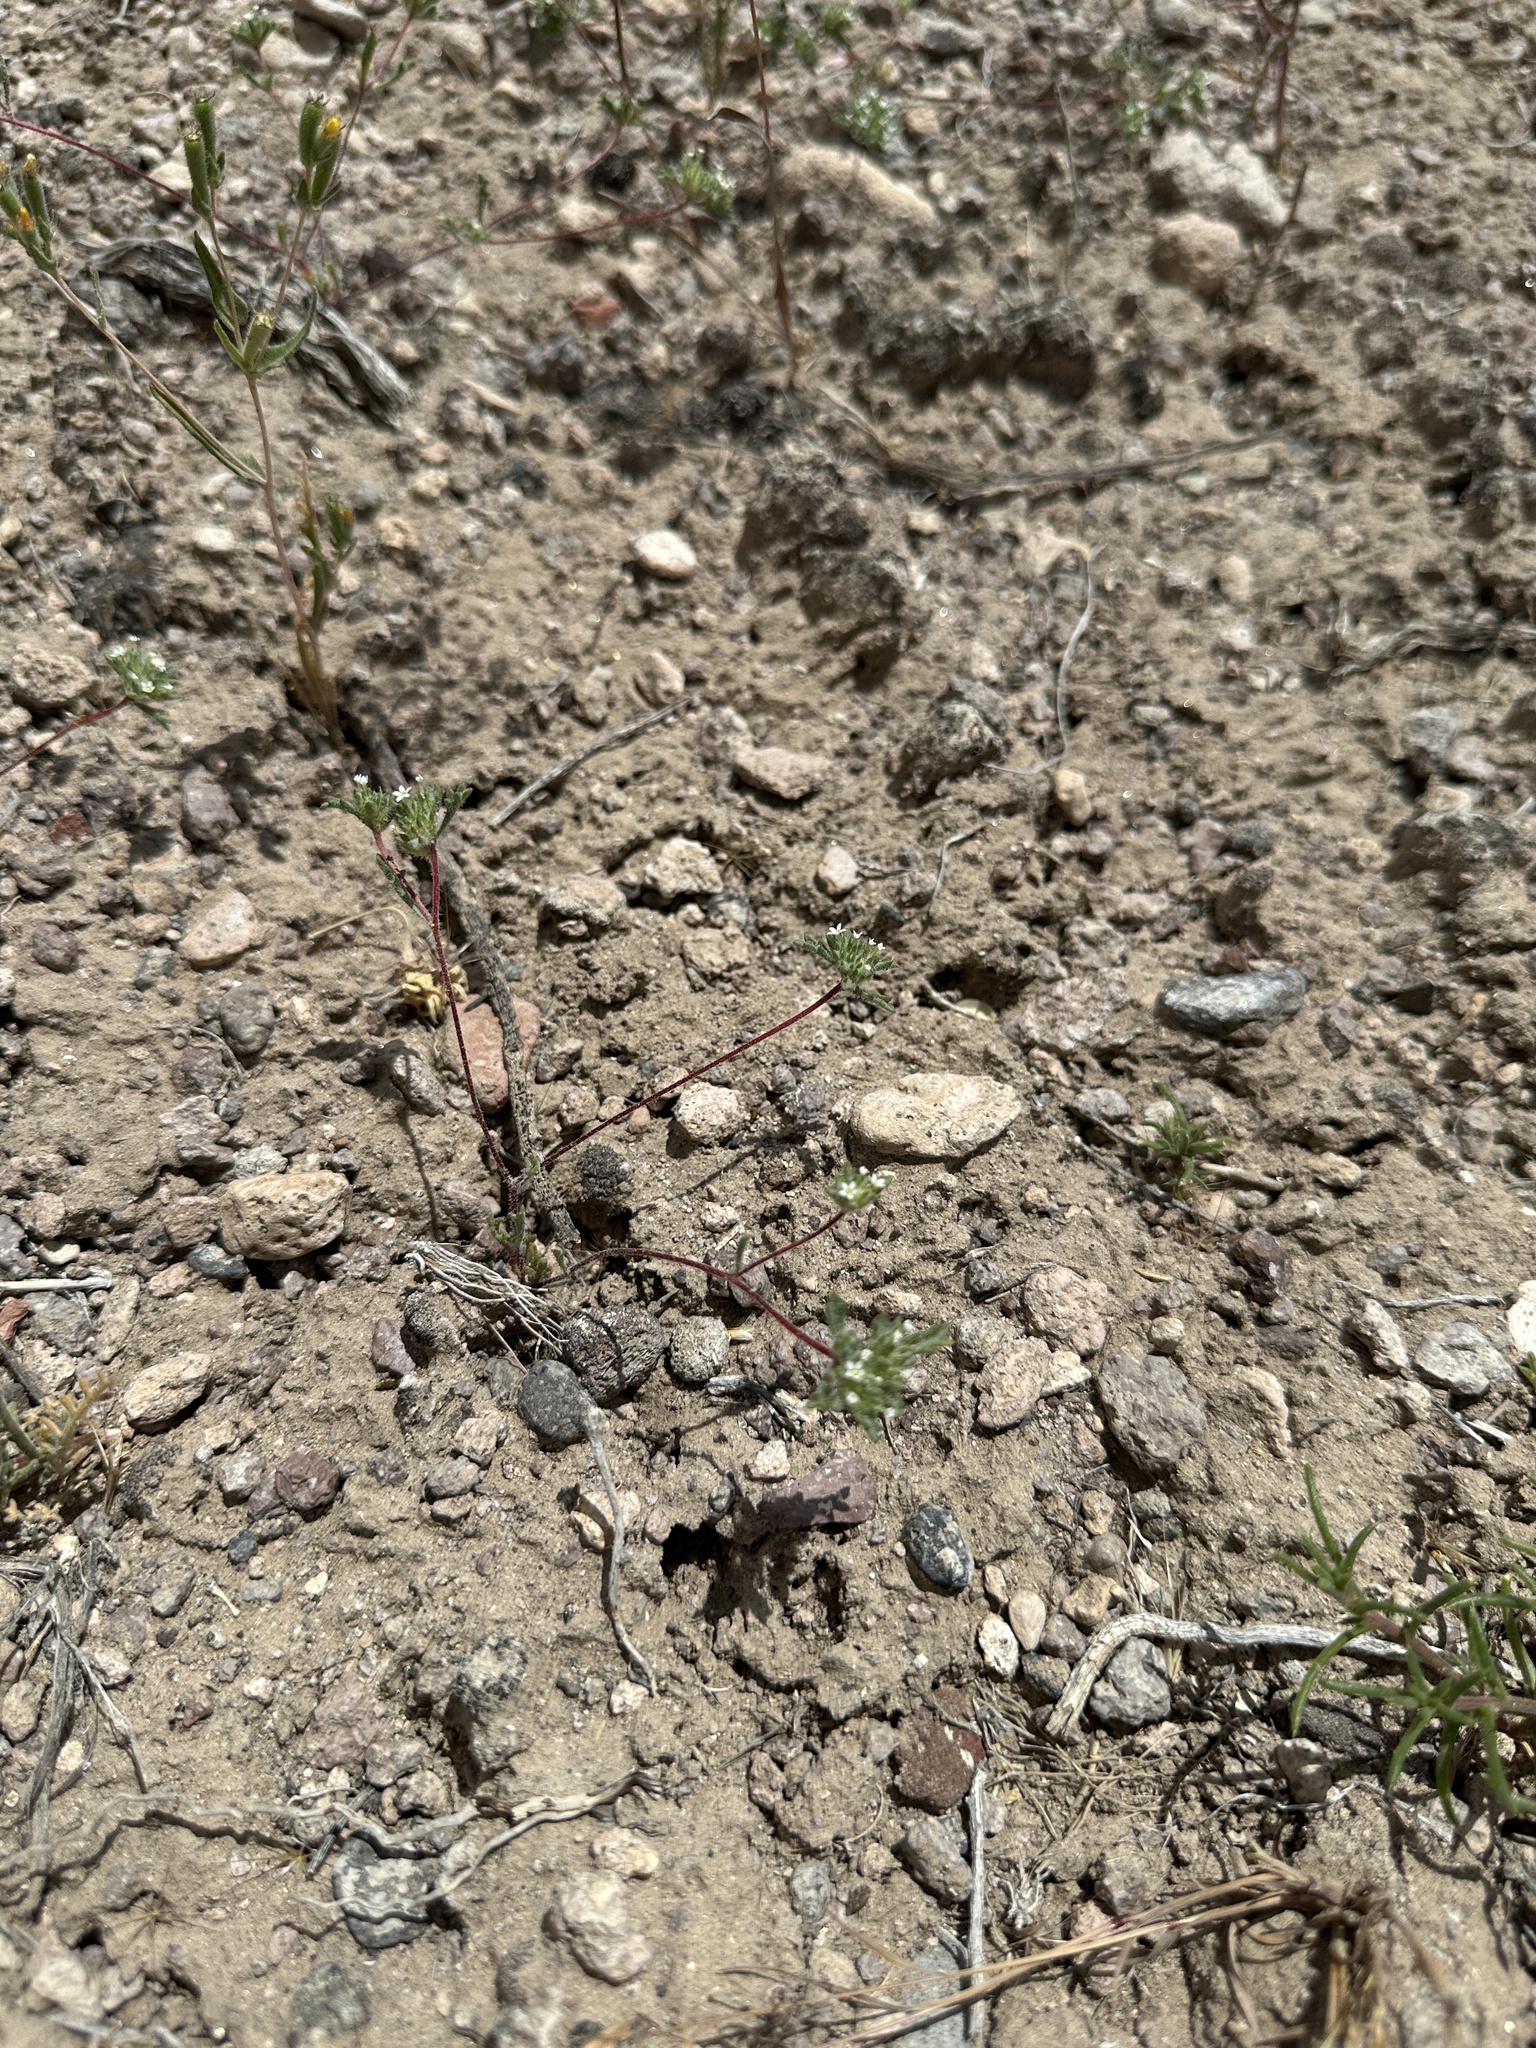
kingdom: Plantae
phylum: Tracheophyta
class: Magnoliopsida
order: Ericales
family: Polemoniaceae
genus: Ipomopsis
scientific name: Ipomopsis polycladon
